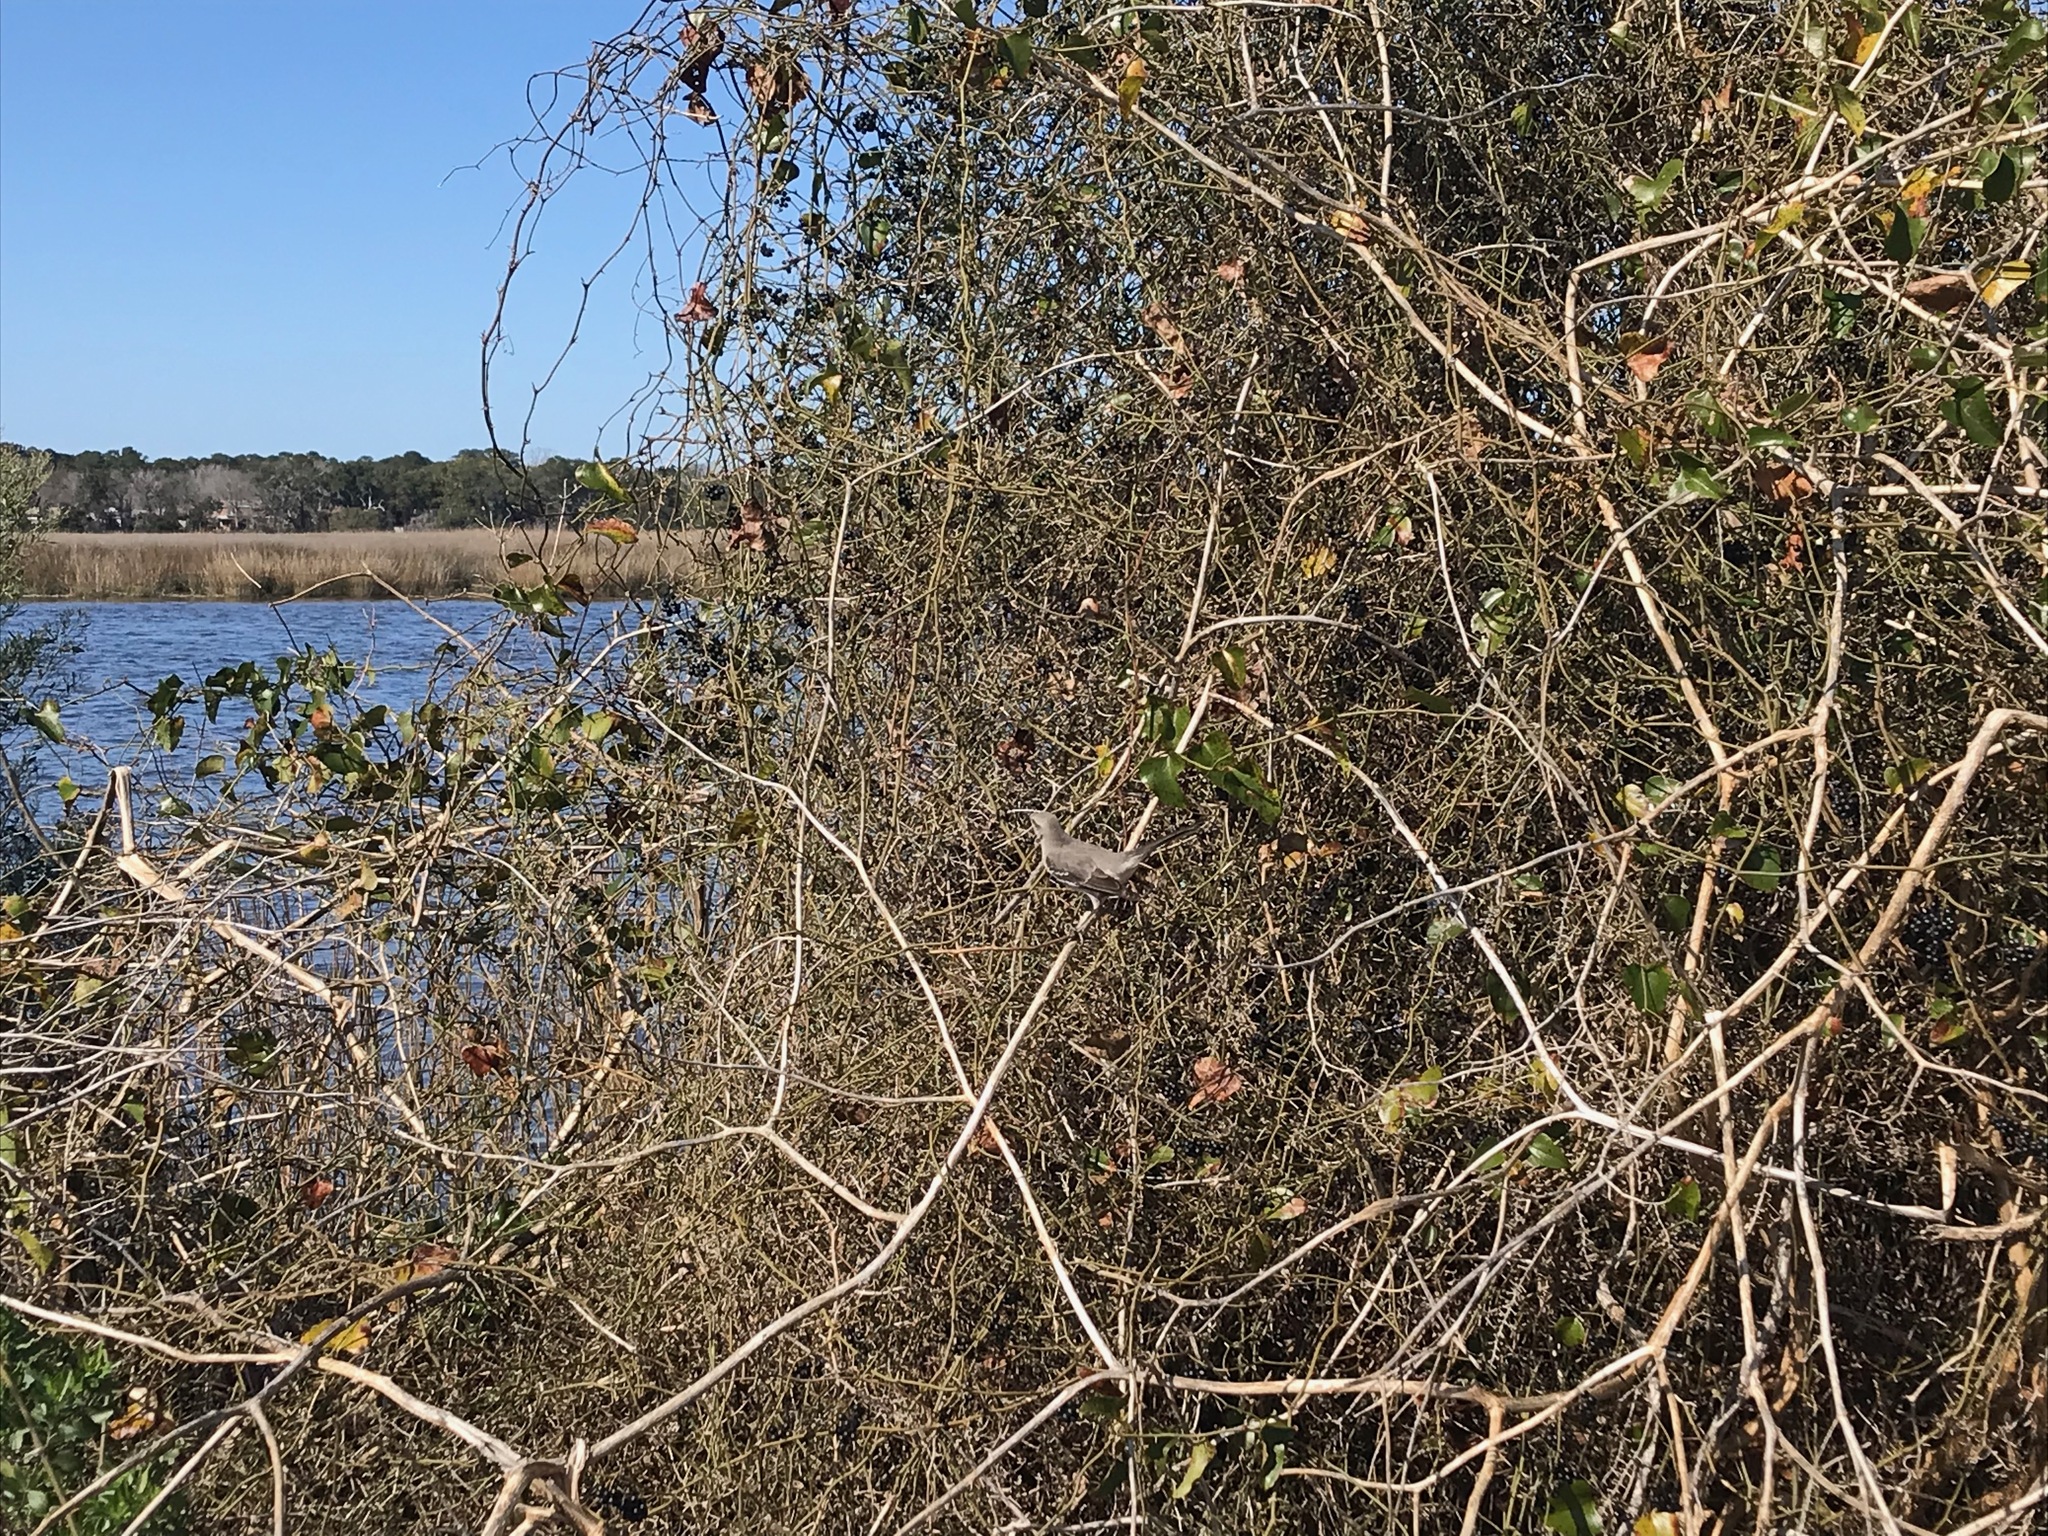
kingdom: Animalia
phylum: Chordata
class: Aves
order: Passeriformes
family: Mimidae
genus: Mimus
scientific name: Mimus polyglottos
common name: Northern mockingbird
